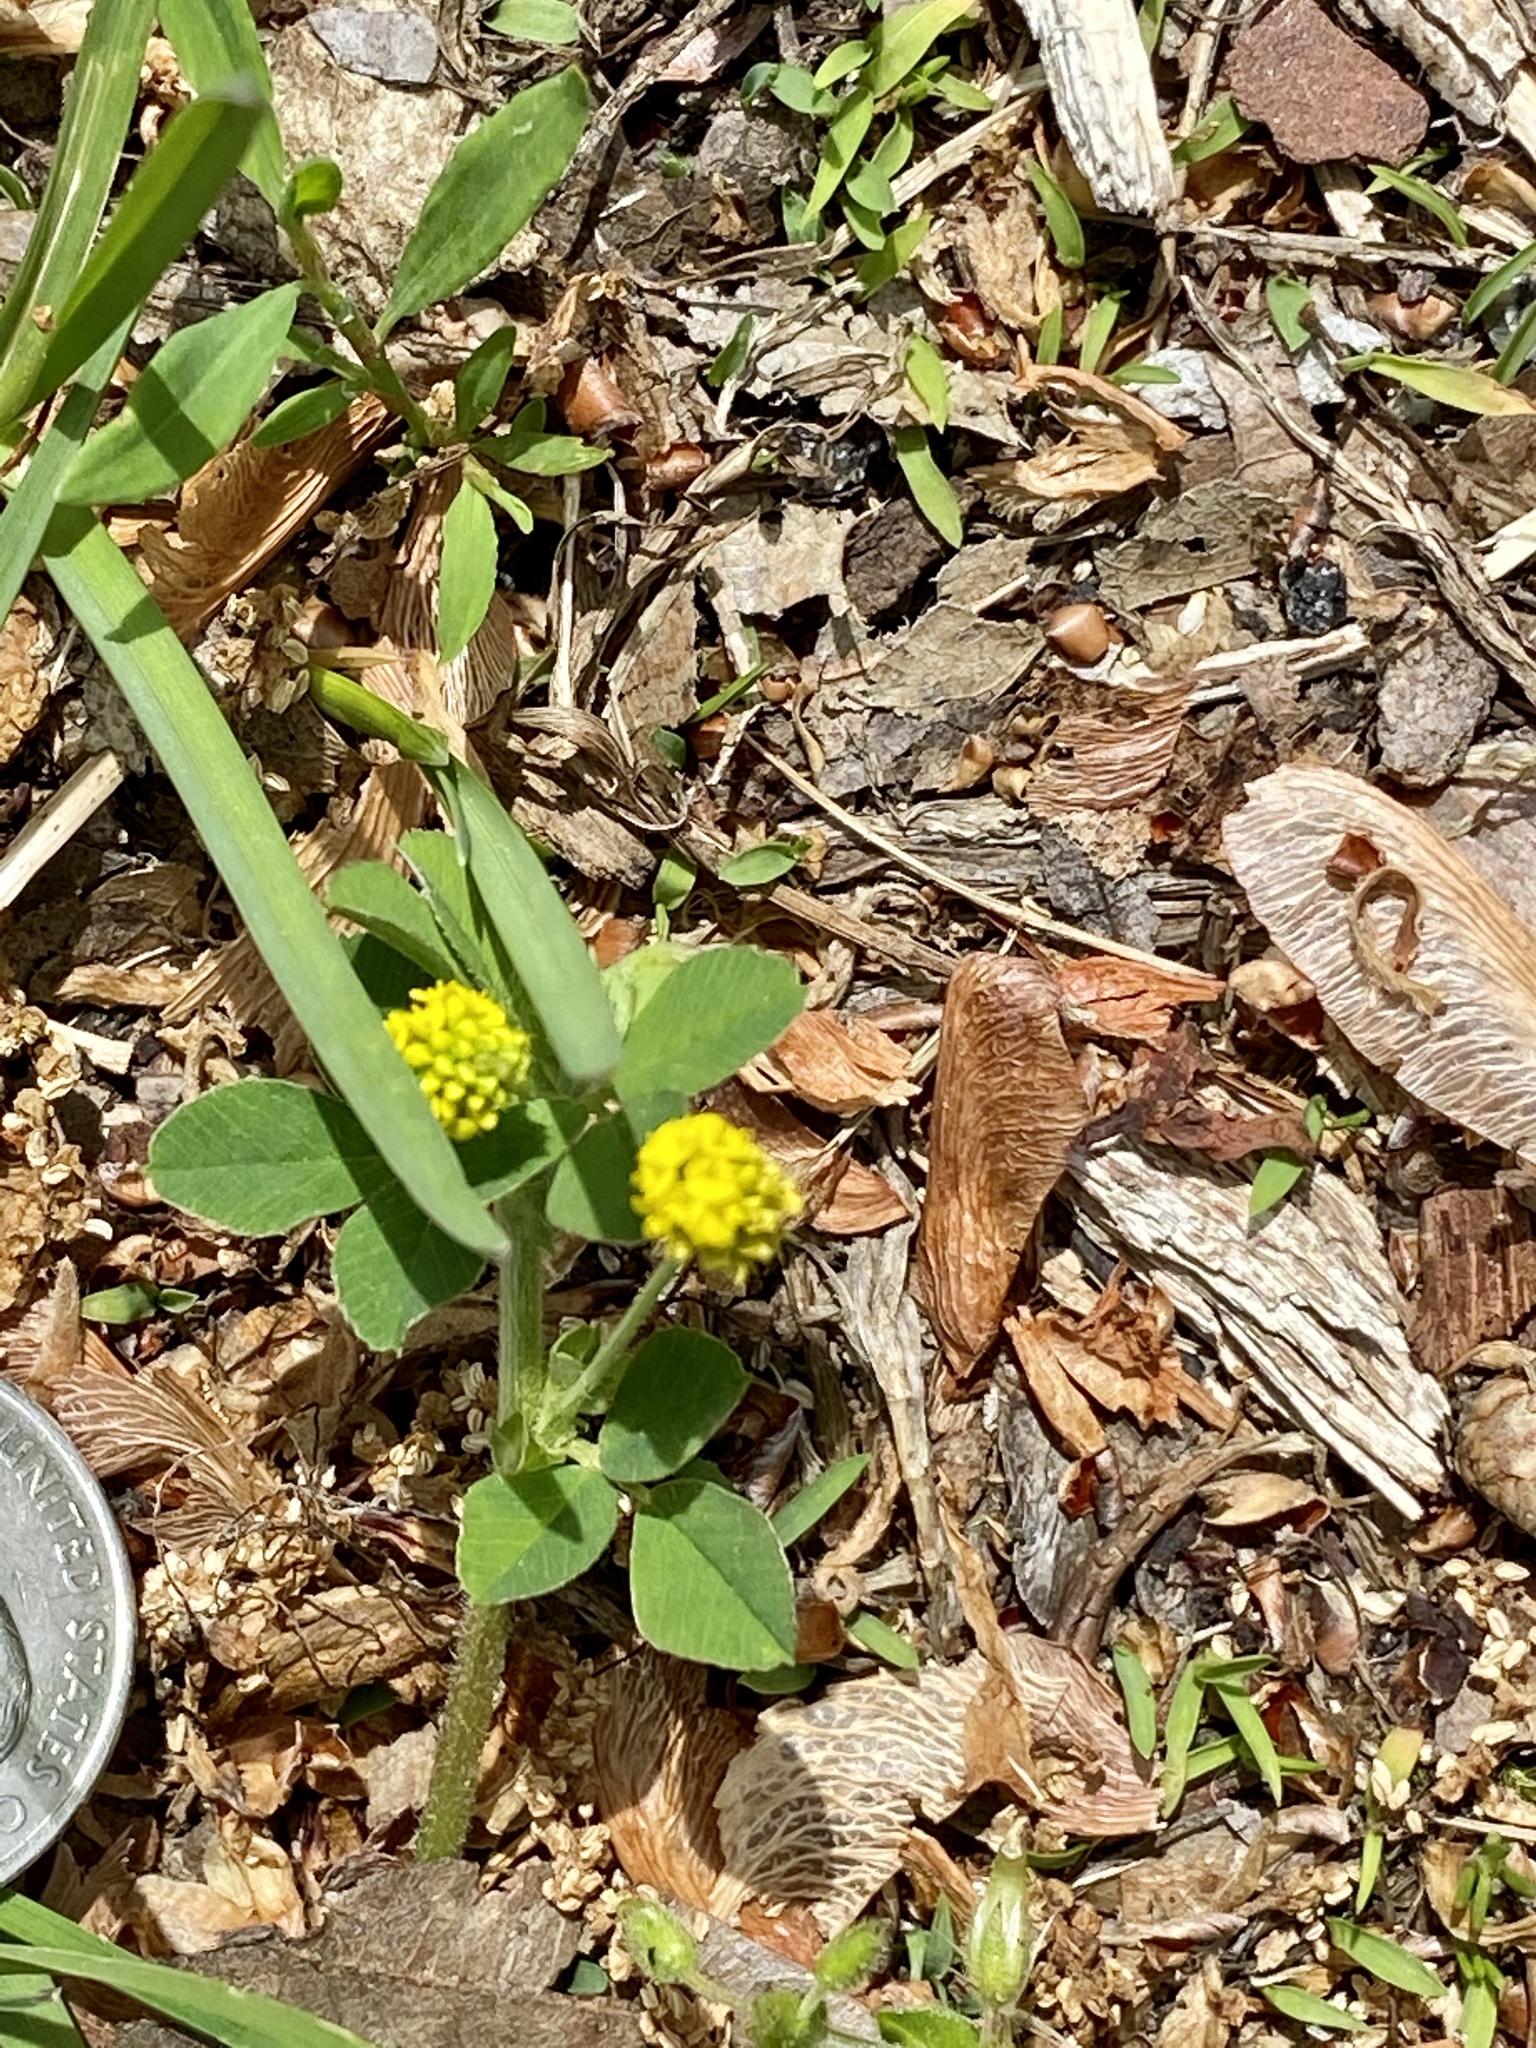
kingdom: Plantae
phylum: Tracheophyta
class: Magnoliopsida
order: Fabales
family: Fabaceae
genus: Medicago
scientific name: Medicago lupulina
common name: Black medick
